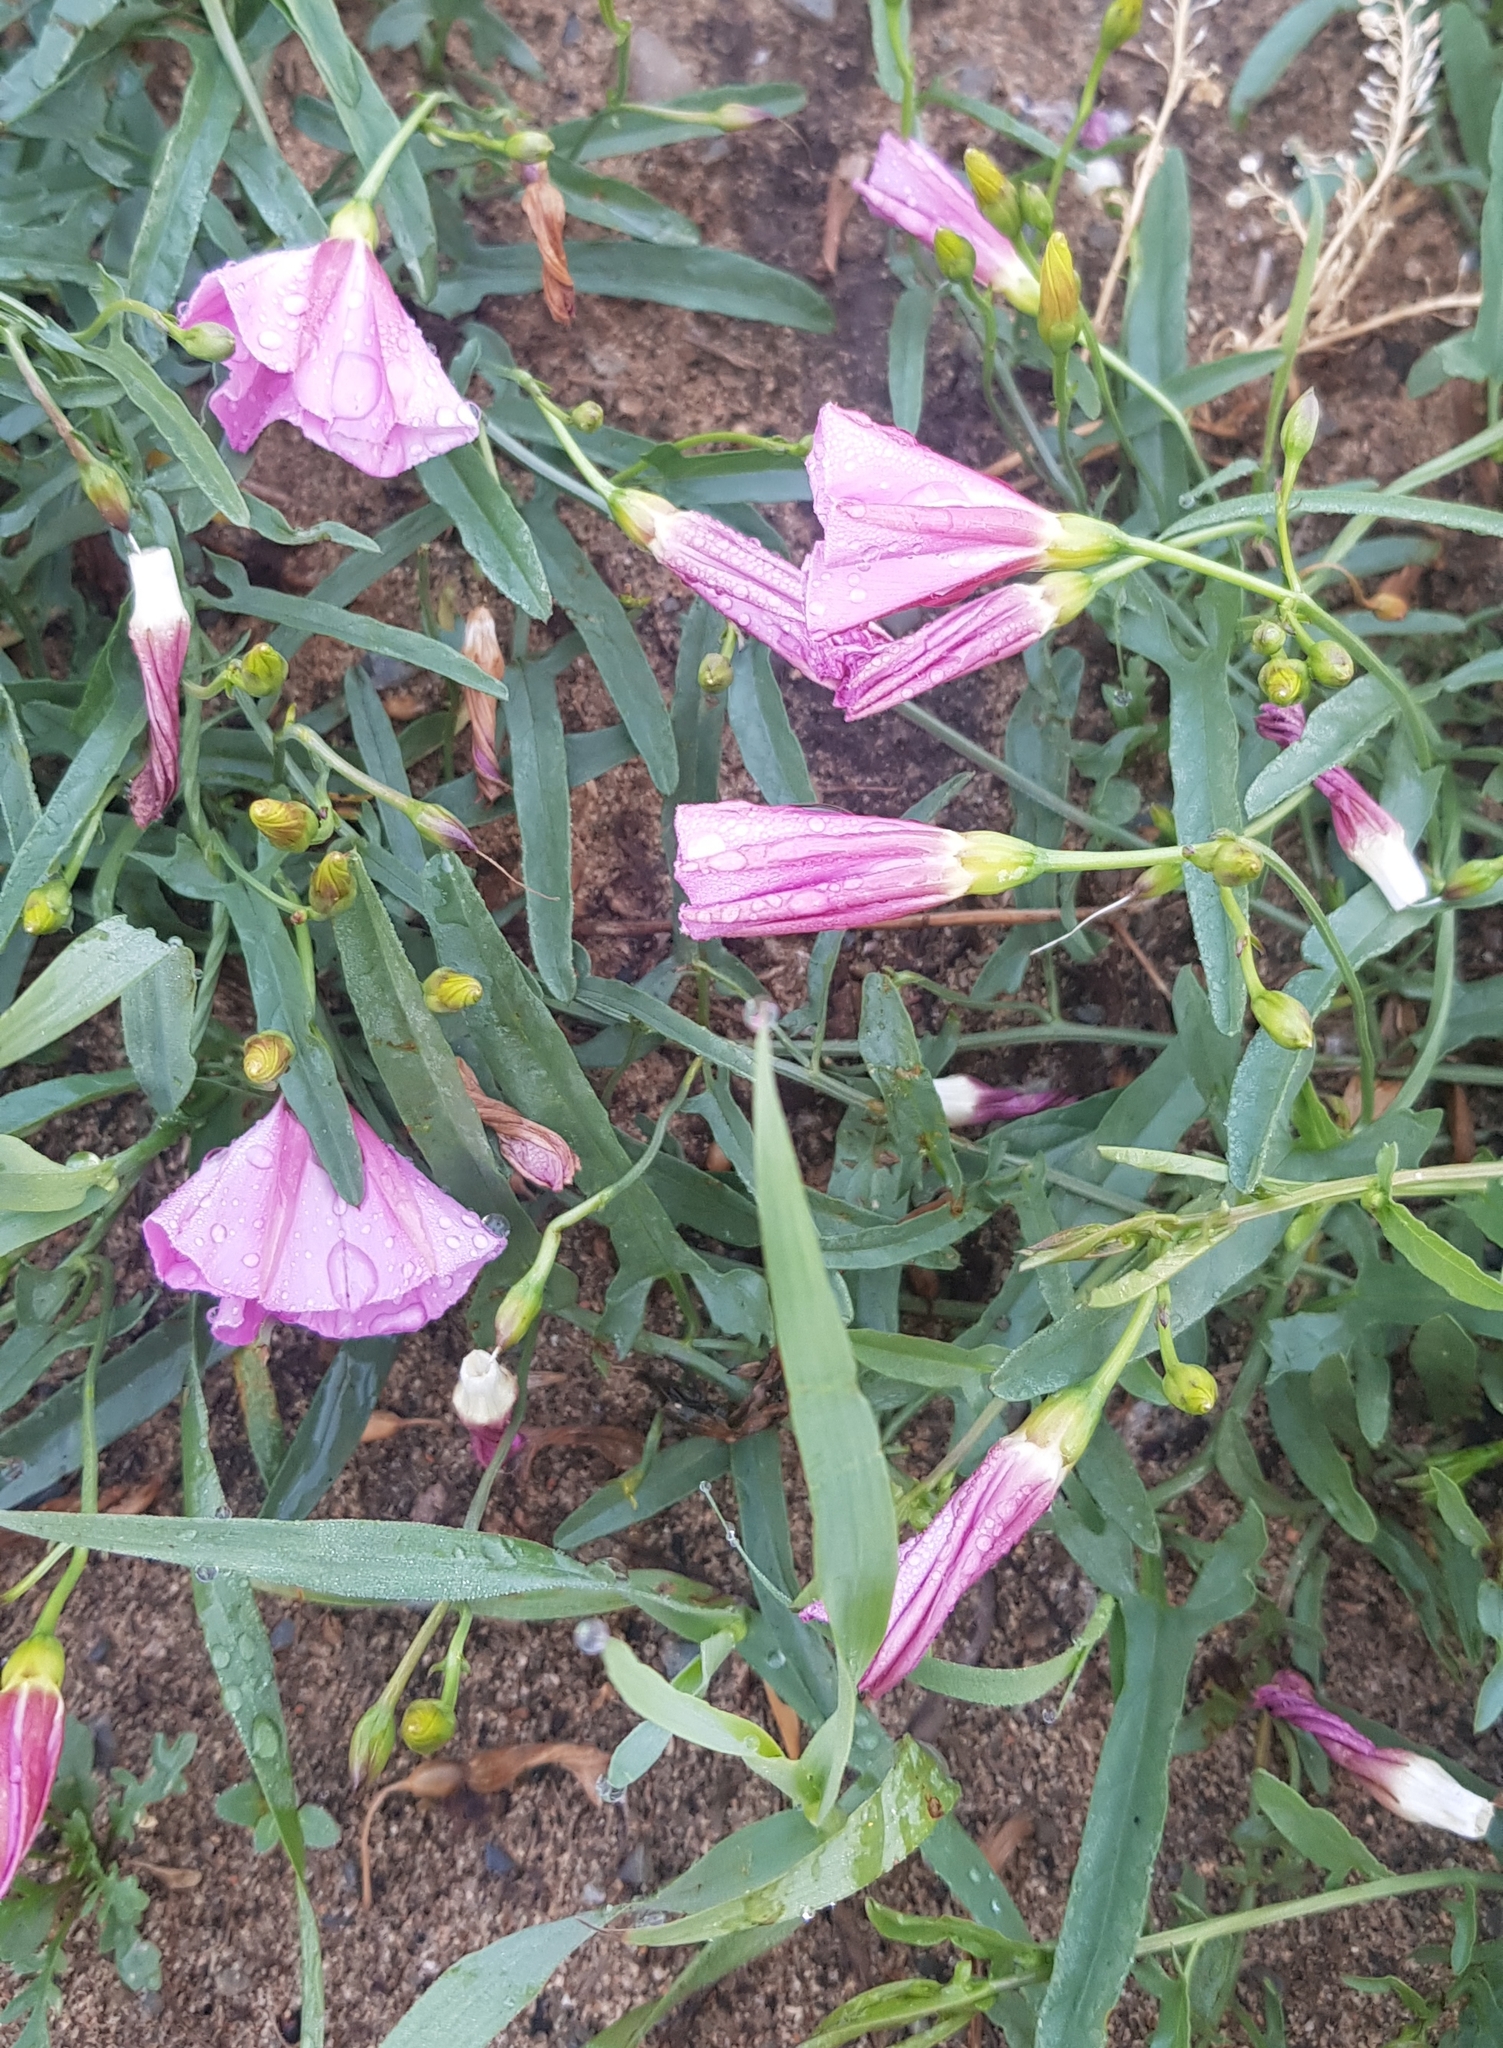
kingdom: Plantae
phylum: Tracheophyta
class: Magnoliopsida
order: Solanales
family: Convolvulaceae
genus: Convolvulus
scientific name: Convolvulus arvensis
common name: Field bindweed
